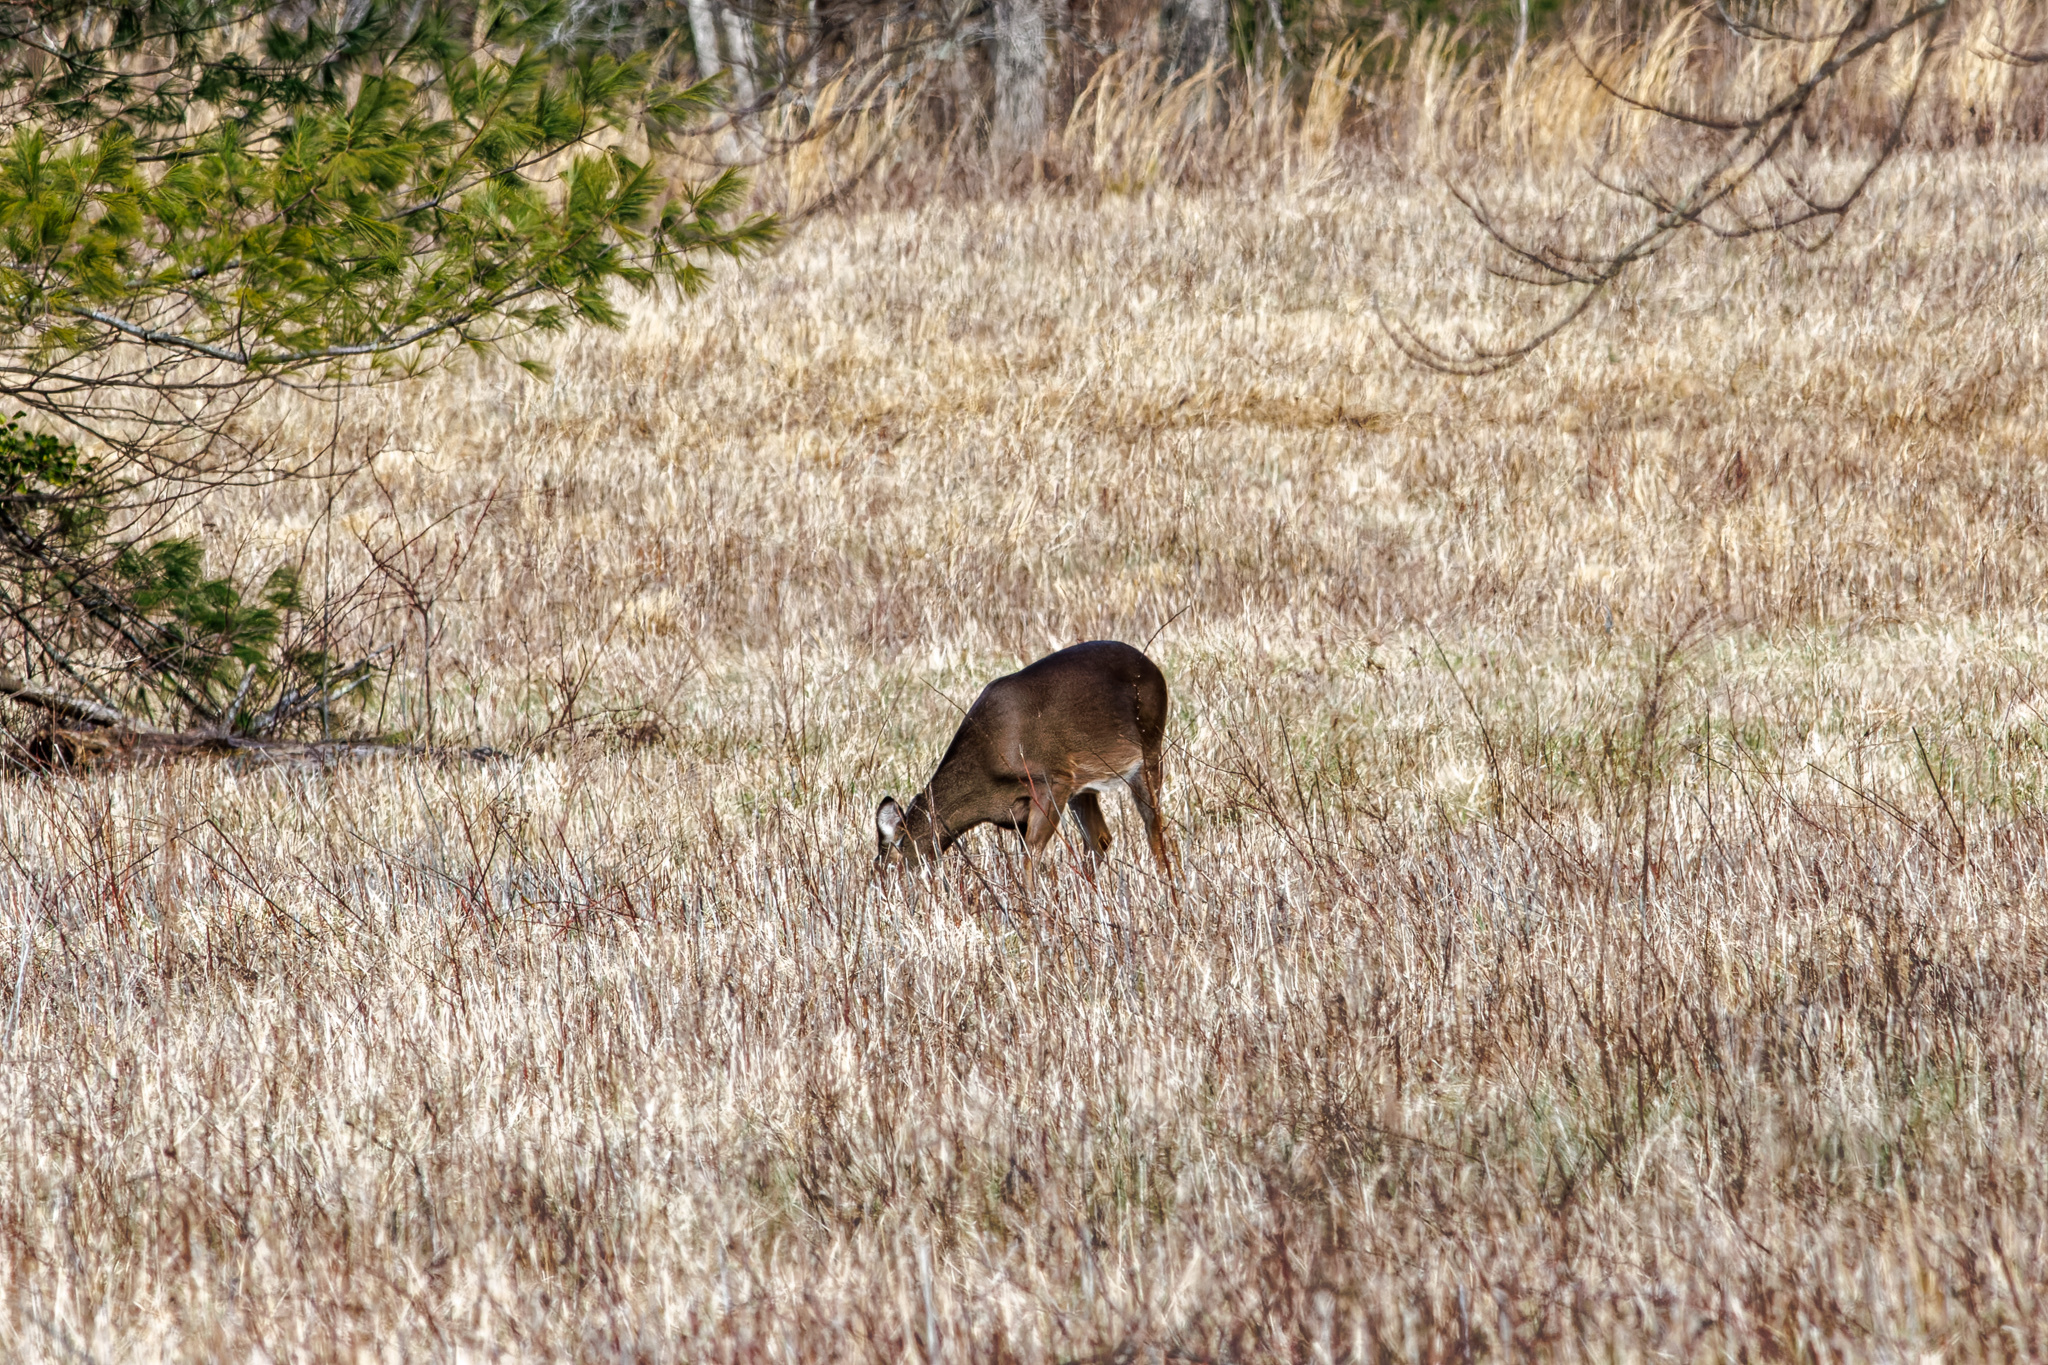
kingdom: Animalia
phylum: Chordata
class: Mammalia
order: Artiodactyla
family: Cervidae
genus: Odocoileus
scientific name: Odocoileus virginianus
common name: White-tailed deer
